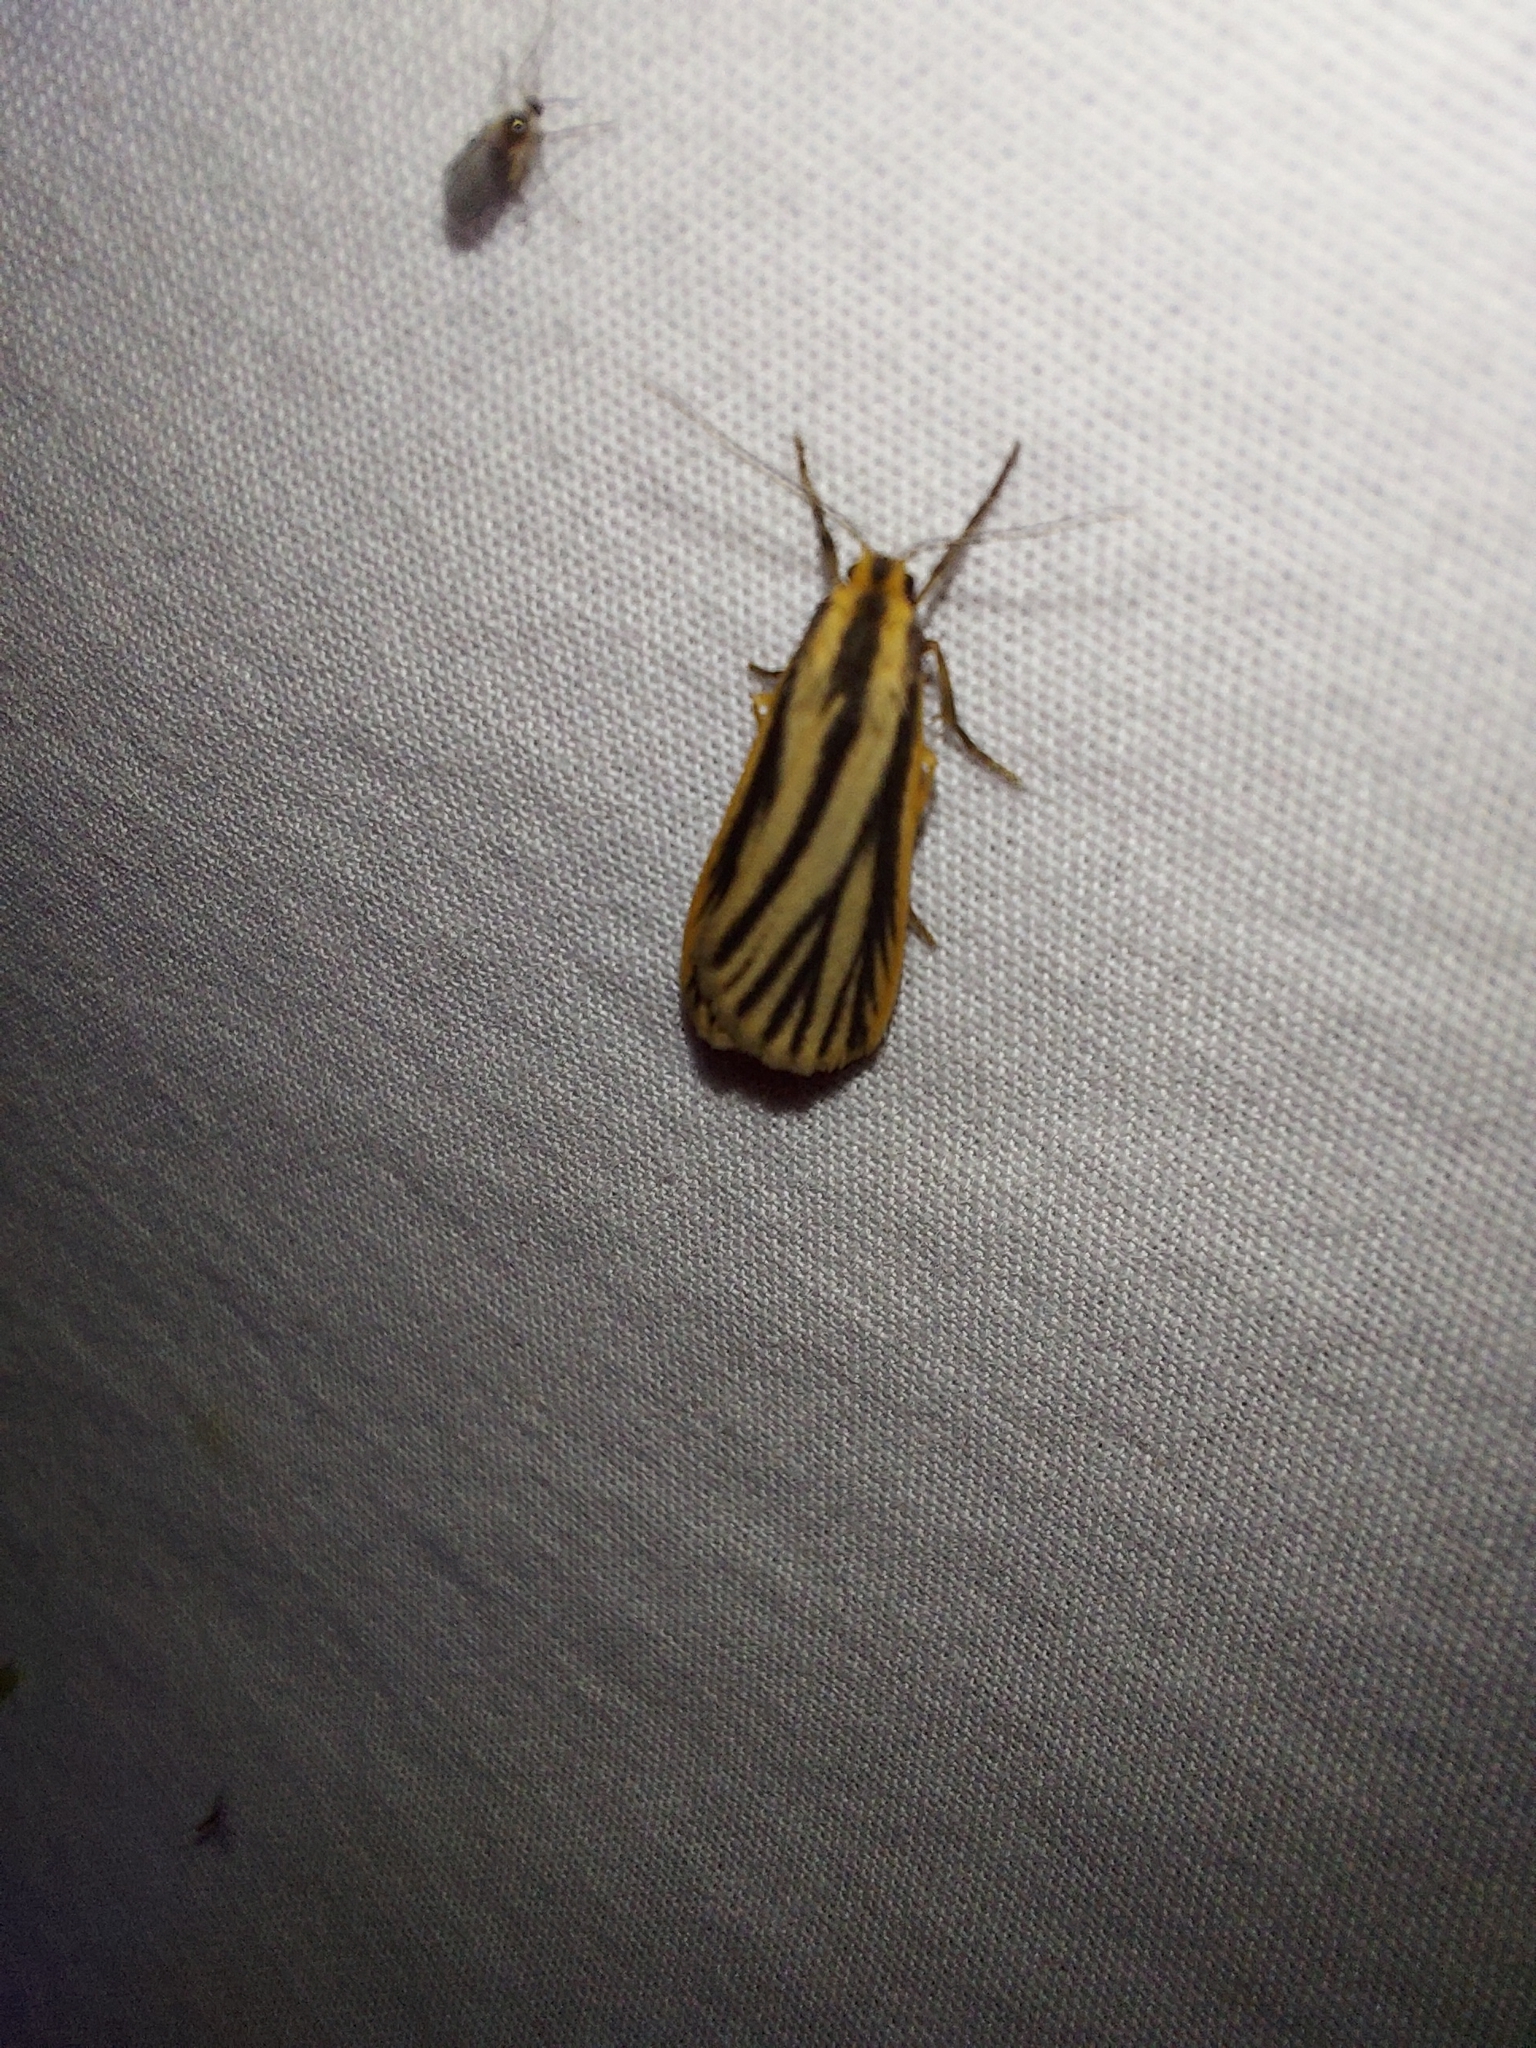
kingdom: Animalia
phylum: Arthropoda
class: Insecta
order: Lepidoptera
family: Erebidae
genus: Phaeophlebosia
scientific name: Phaeophlebosia furcifera
